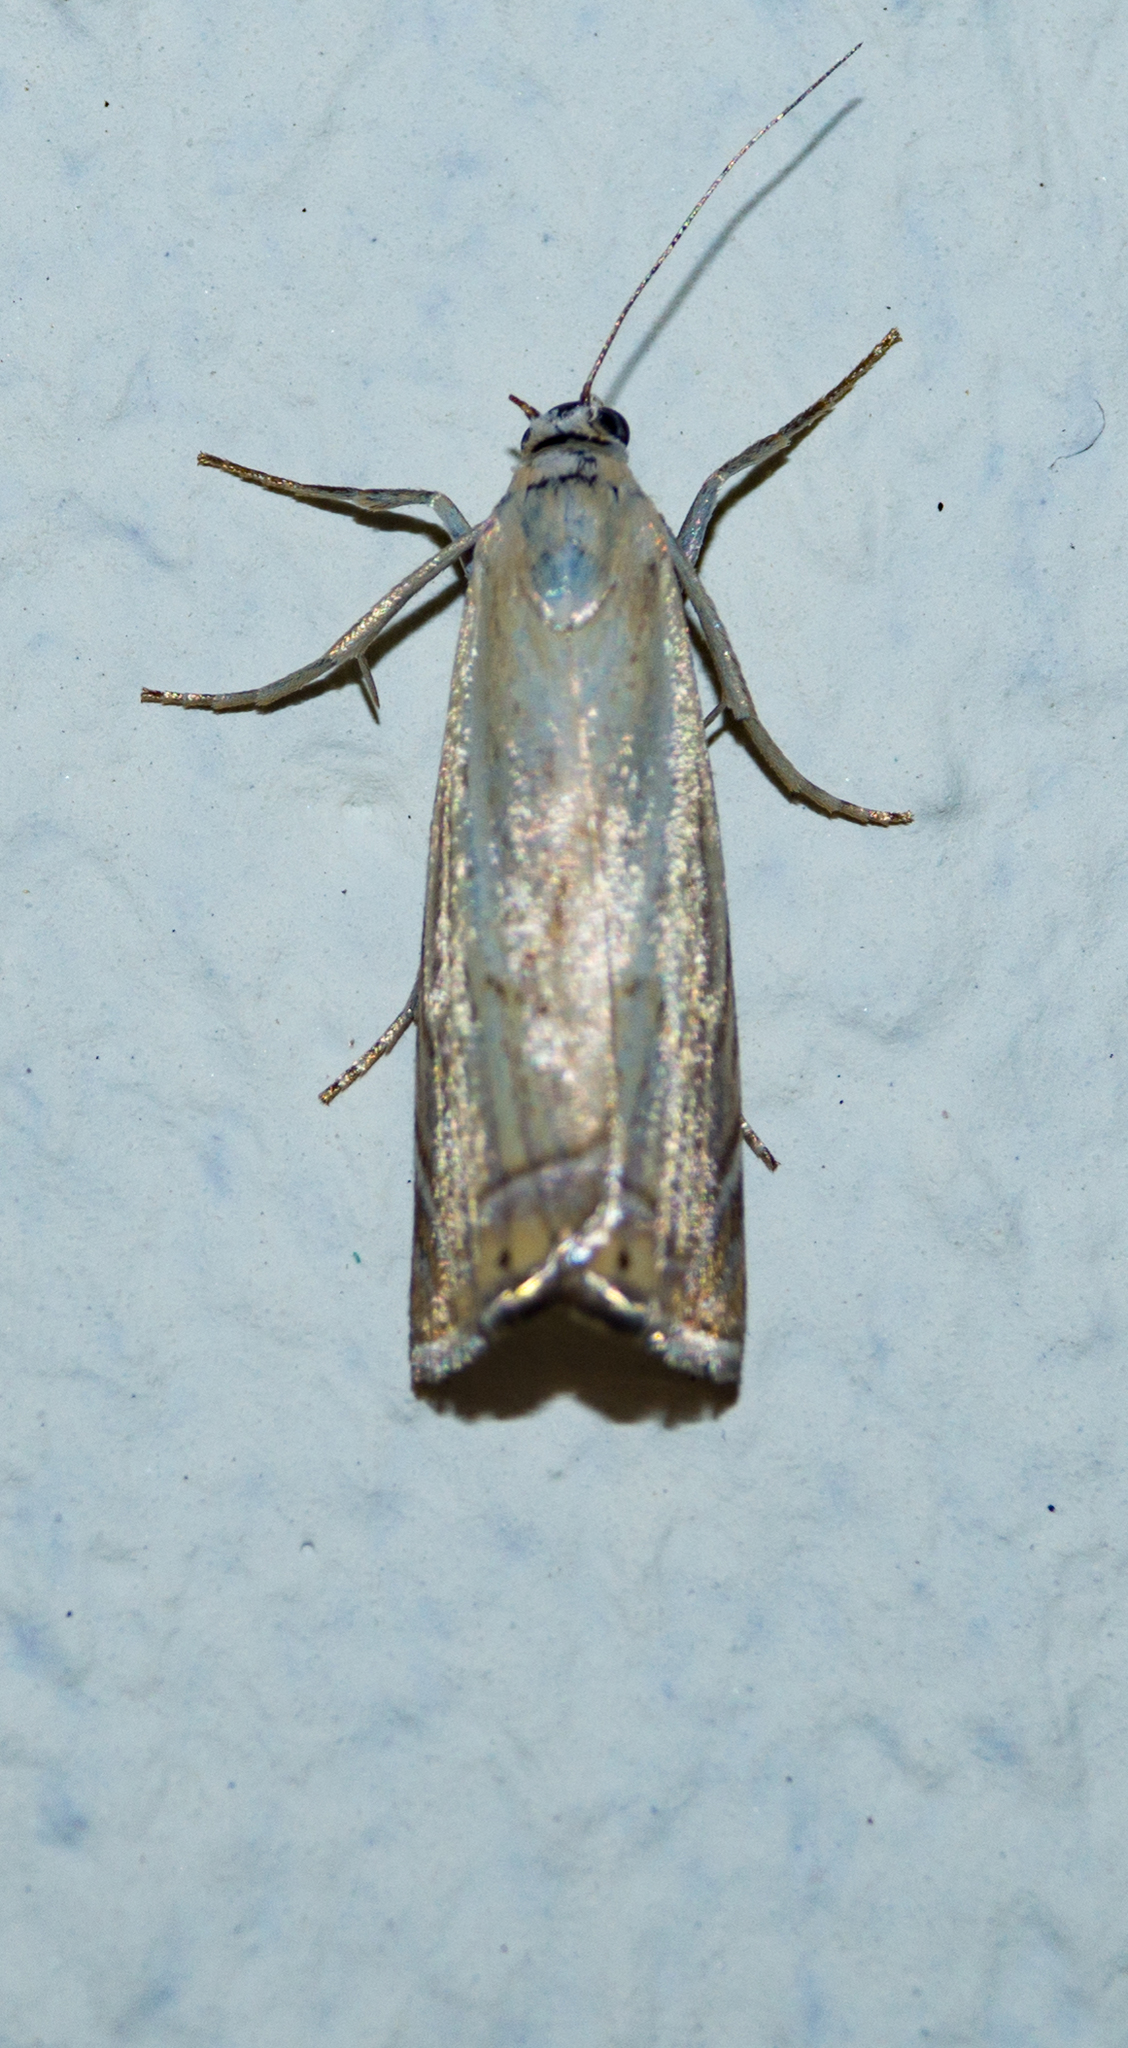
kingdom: Animalia
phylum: Arthropoda
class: Insecta
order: Lepidoptera
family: Crambidae
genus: Chrysoteuchia
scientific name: Chrysoteuchia culmella
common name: Garden grass-veneer
